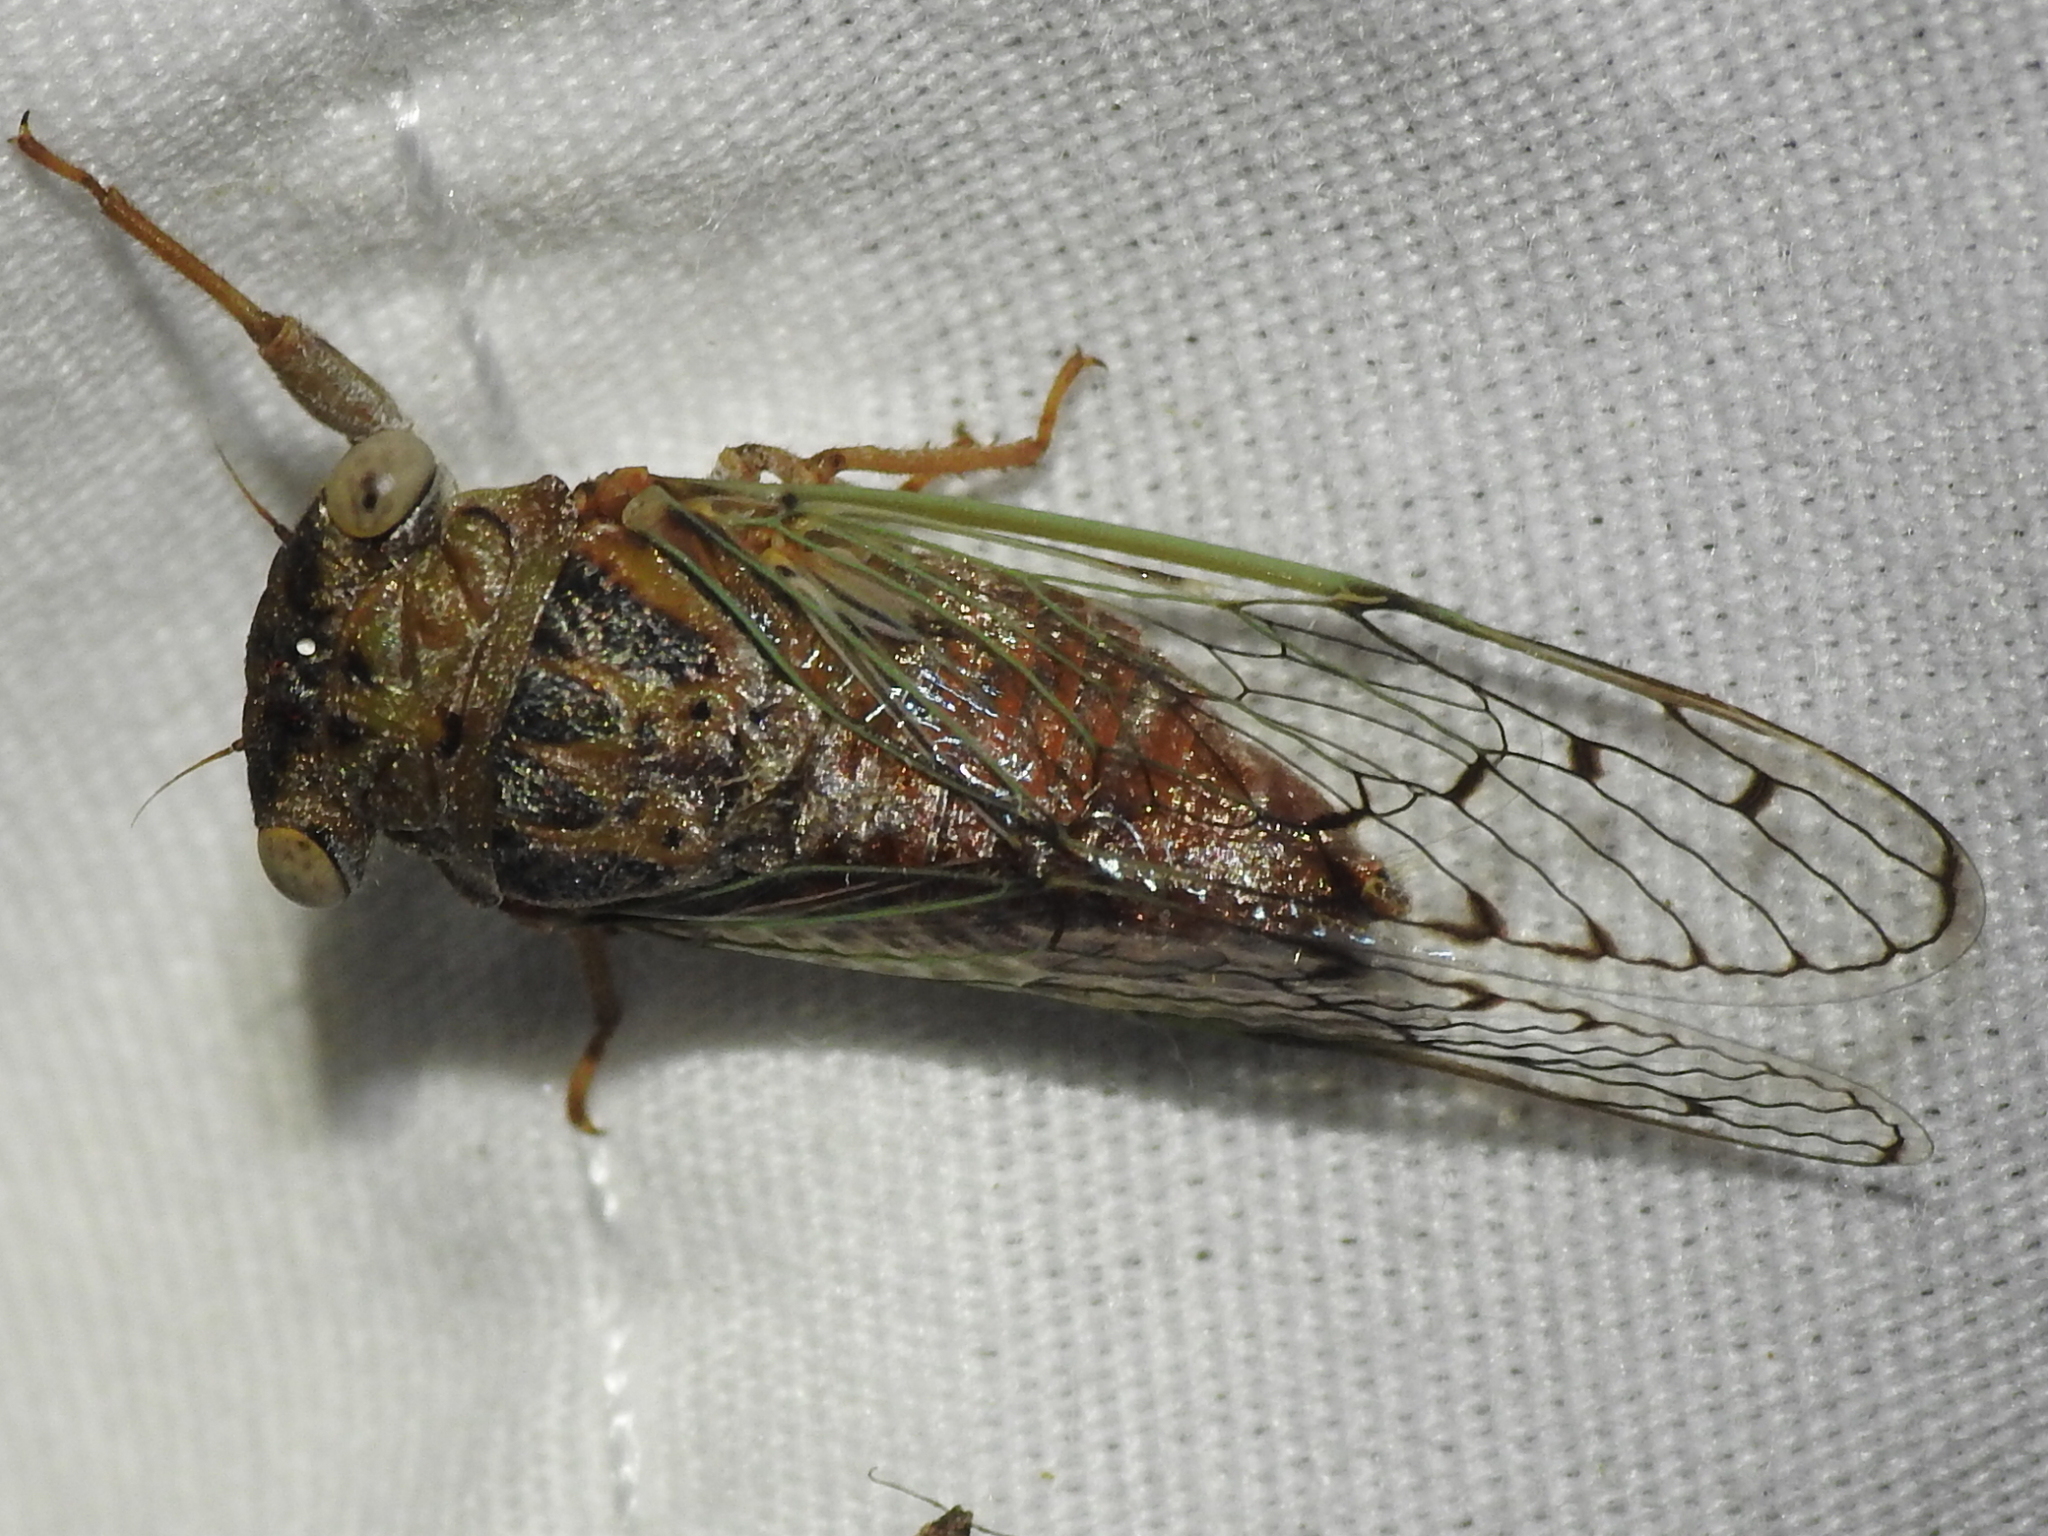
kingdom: Animalia
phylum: Arthropoda
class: Insecta
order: Hemiptera
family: Cicadidae
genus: Pacarina
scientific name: Pacarina puella
